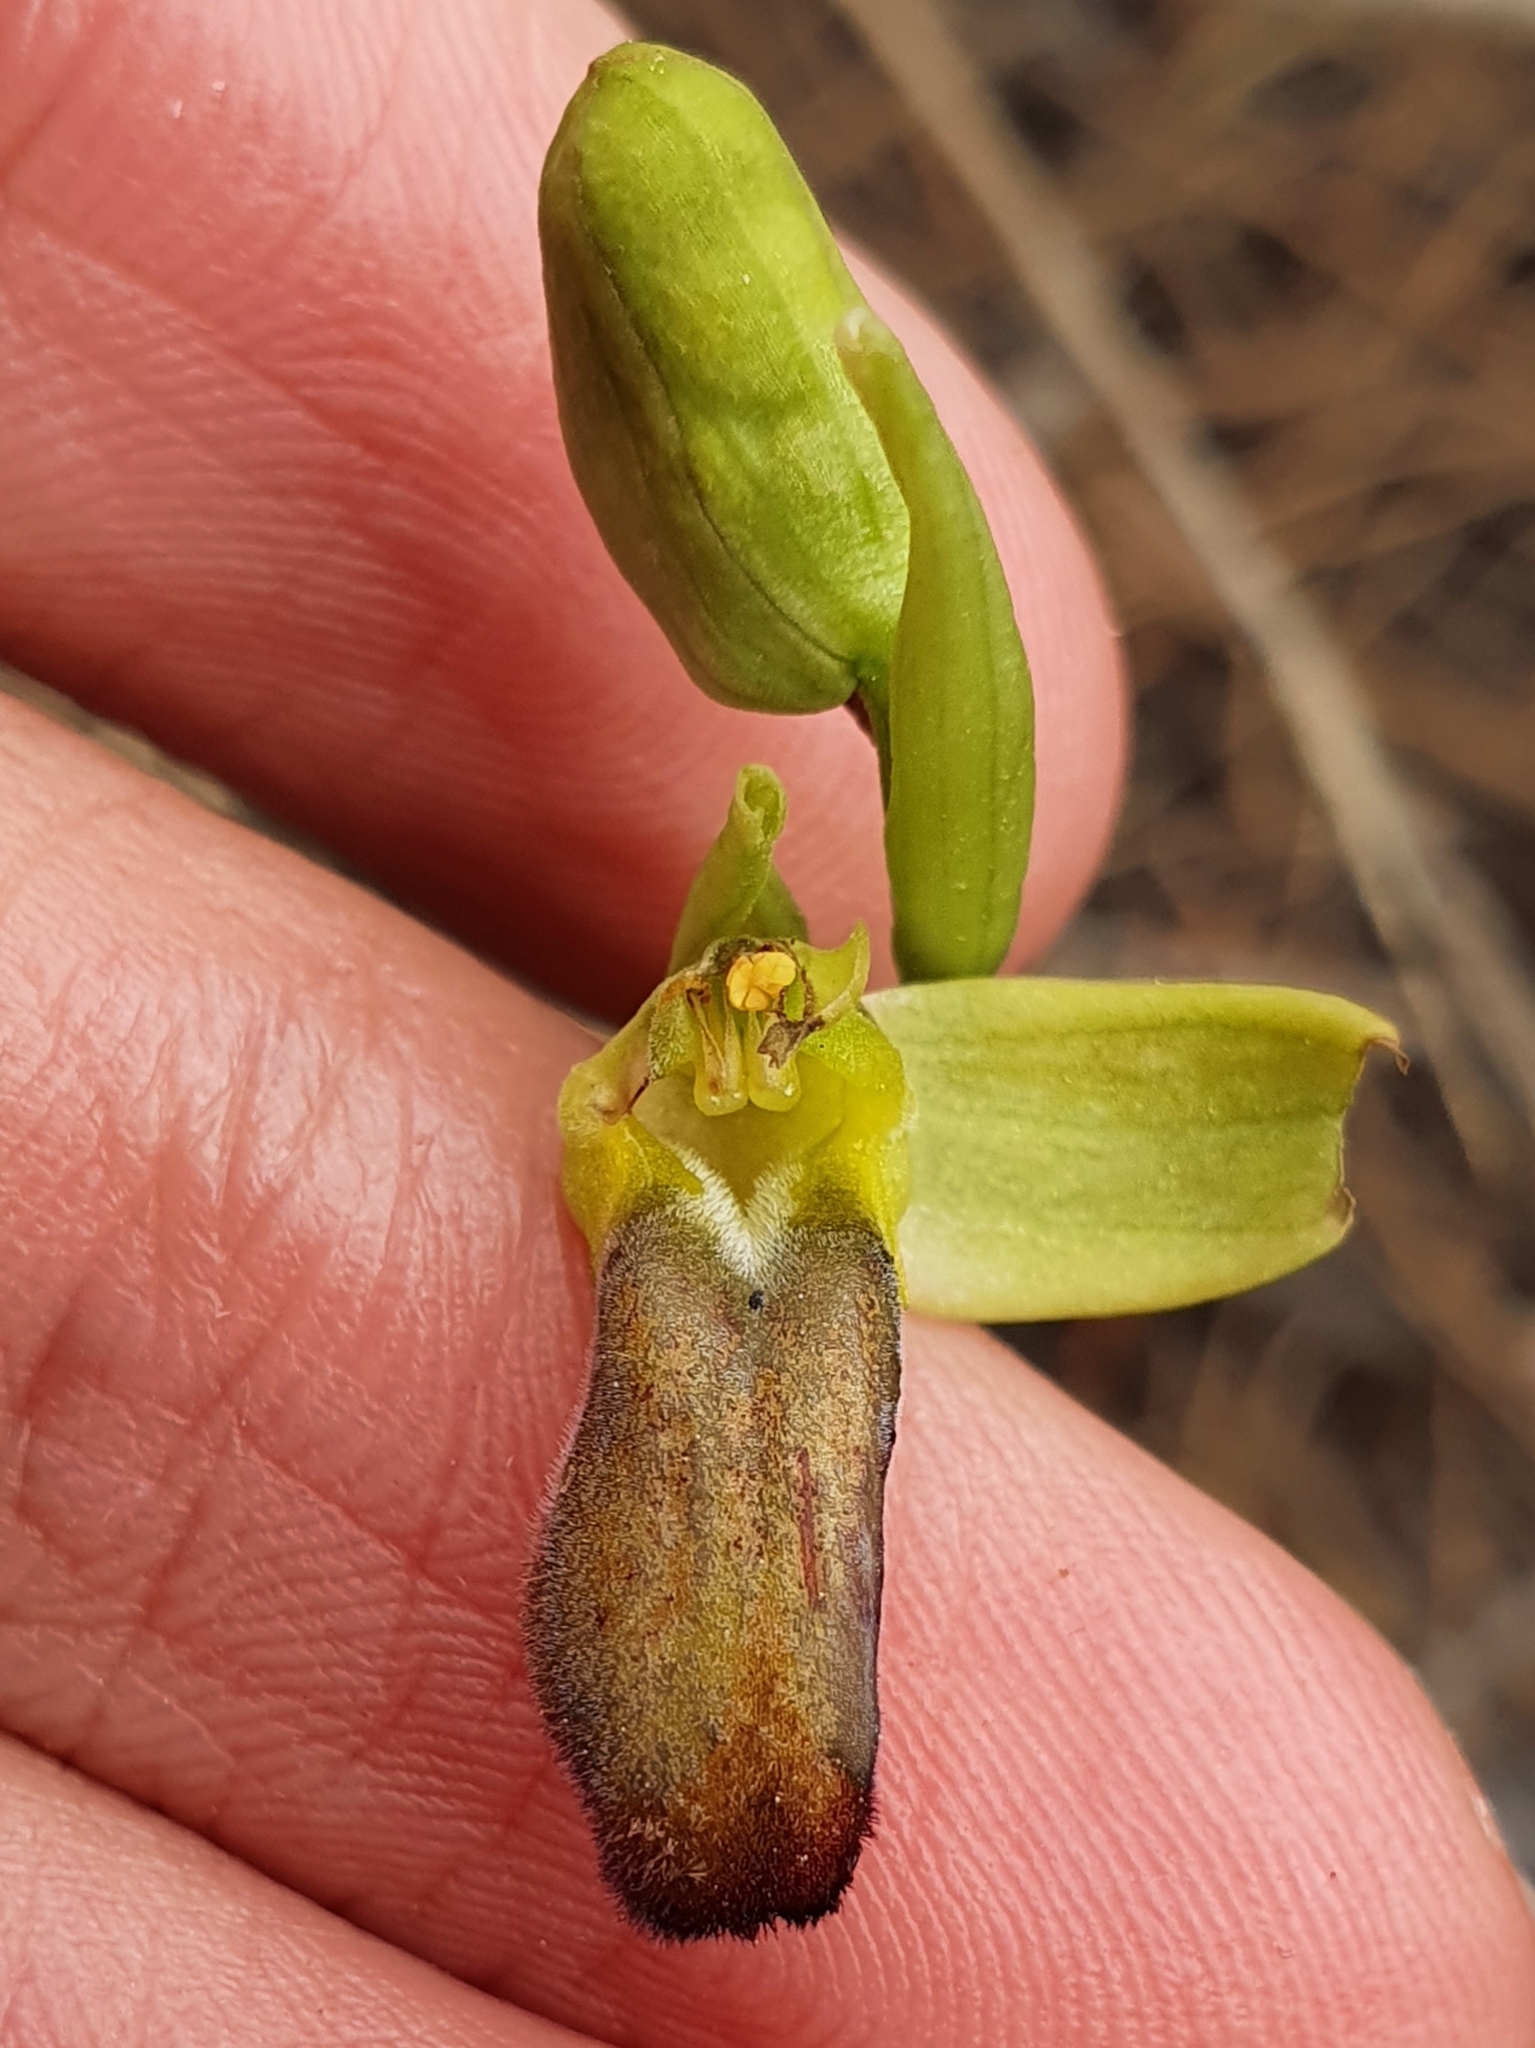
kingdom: Plantae
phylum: Tracheophyta
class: Liliopsida
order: Asparagales
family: Orchidaceae
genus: Ophrys
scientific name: Ophrys fusca
